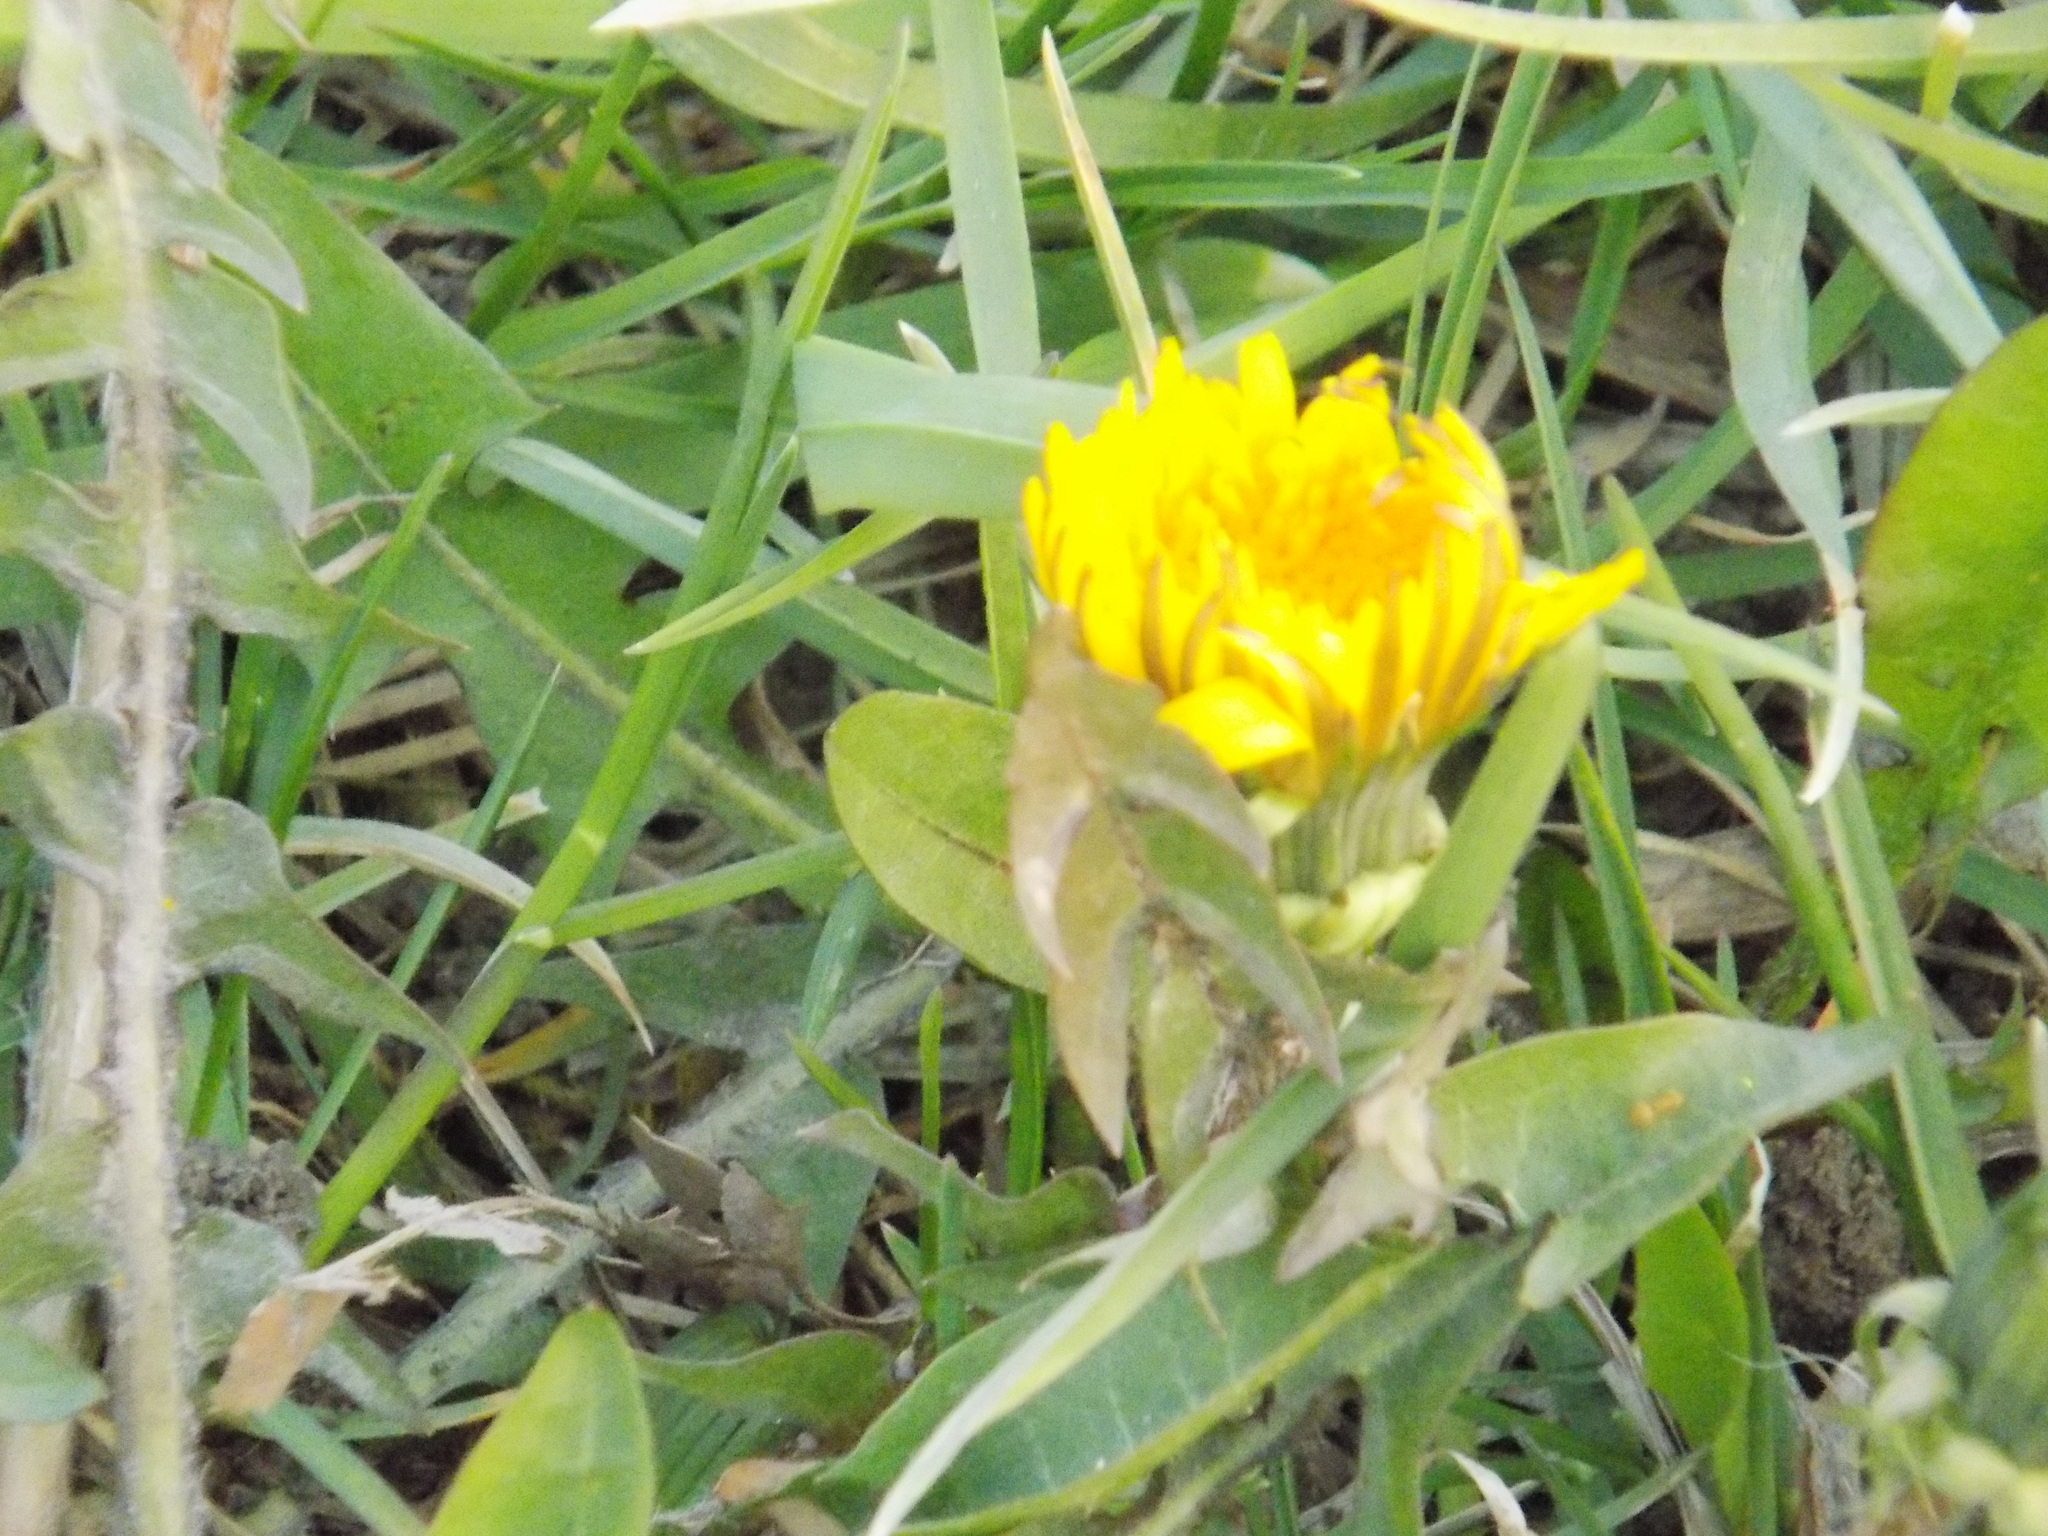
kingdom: Plantae
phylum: Tracheophyta
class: Magnoliopsida
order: Asterales
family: Asteraceae
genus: Taraxacum
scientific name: Taraxacum officinale
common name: Common dandelion
